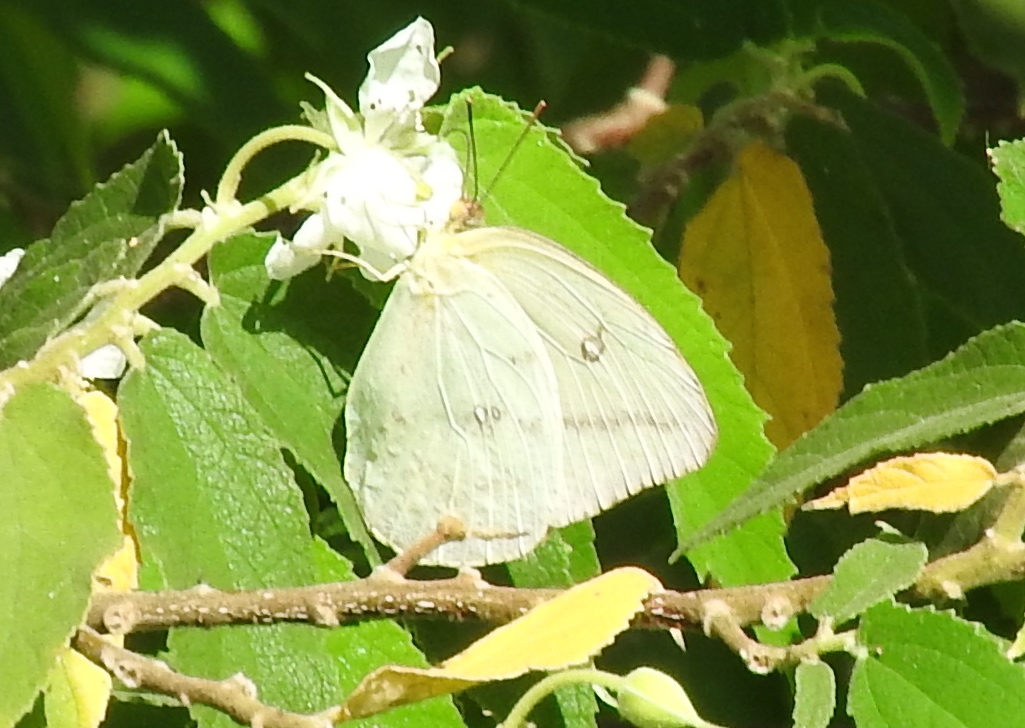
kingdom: Animalia
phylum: Arthropoda
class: Insecta
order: Lepidoptera
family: Pieridae
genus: Phoebis
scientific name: Phoebis agarithe
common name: Large orange sulphur
